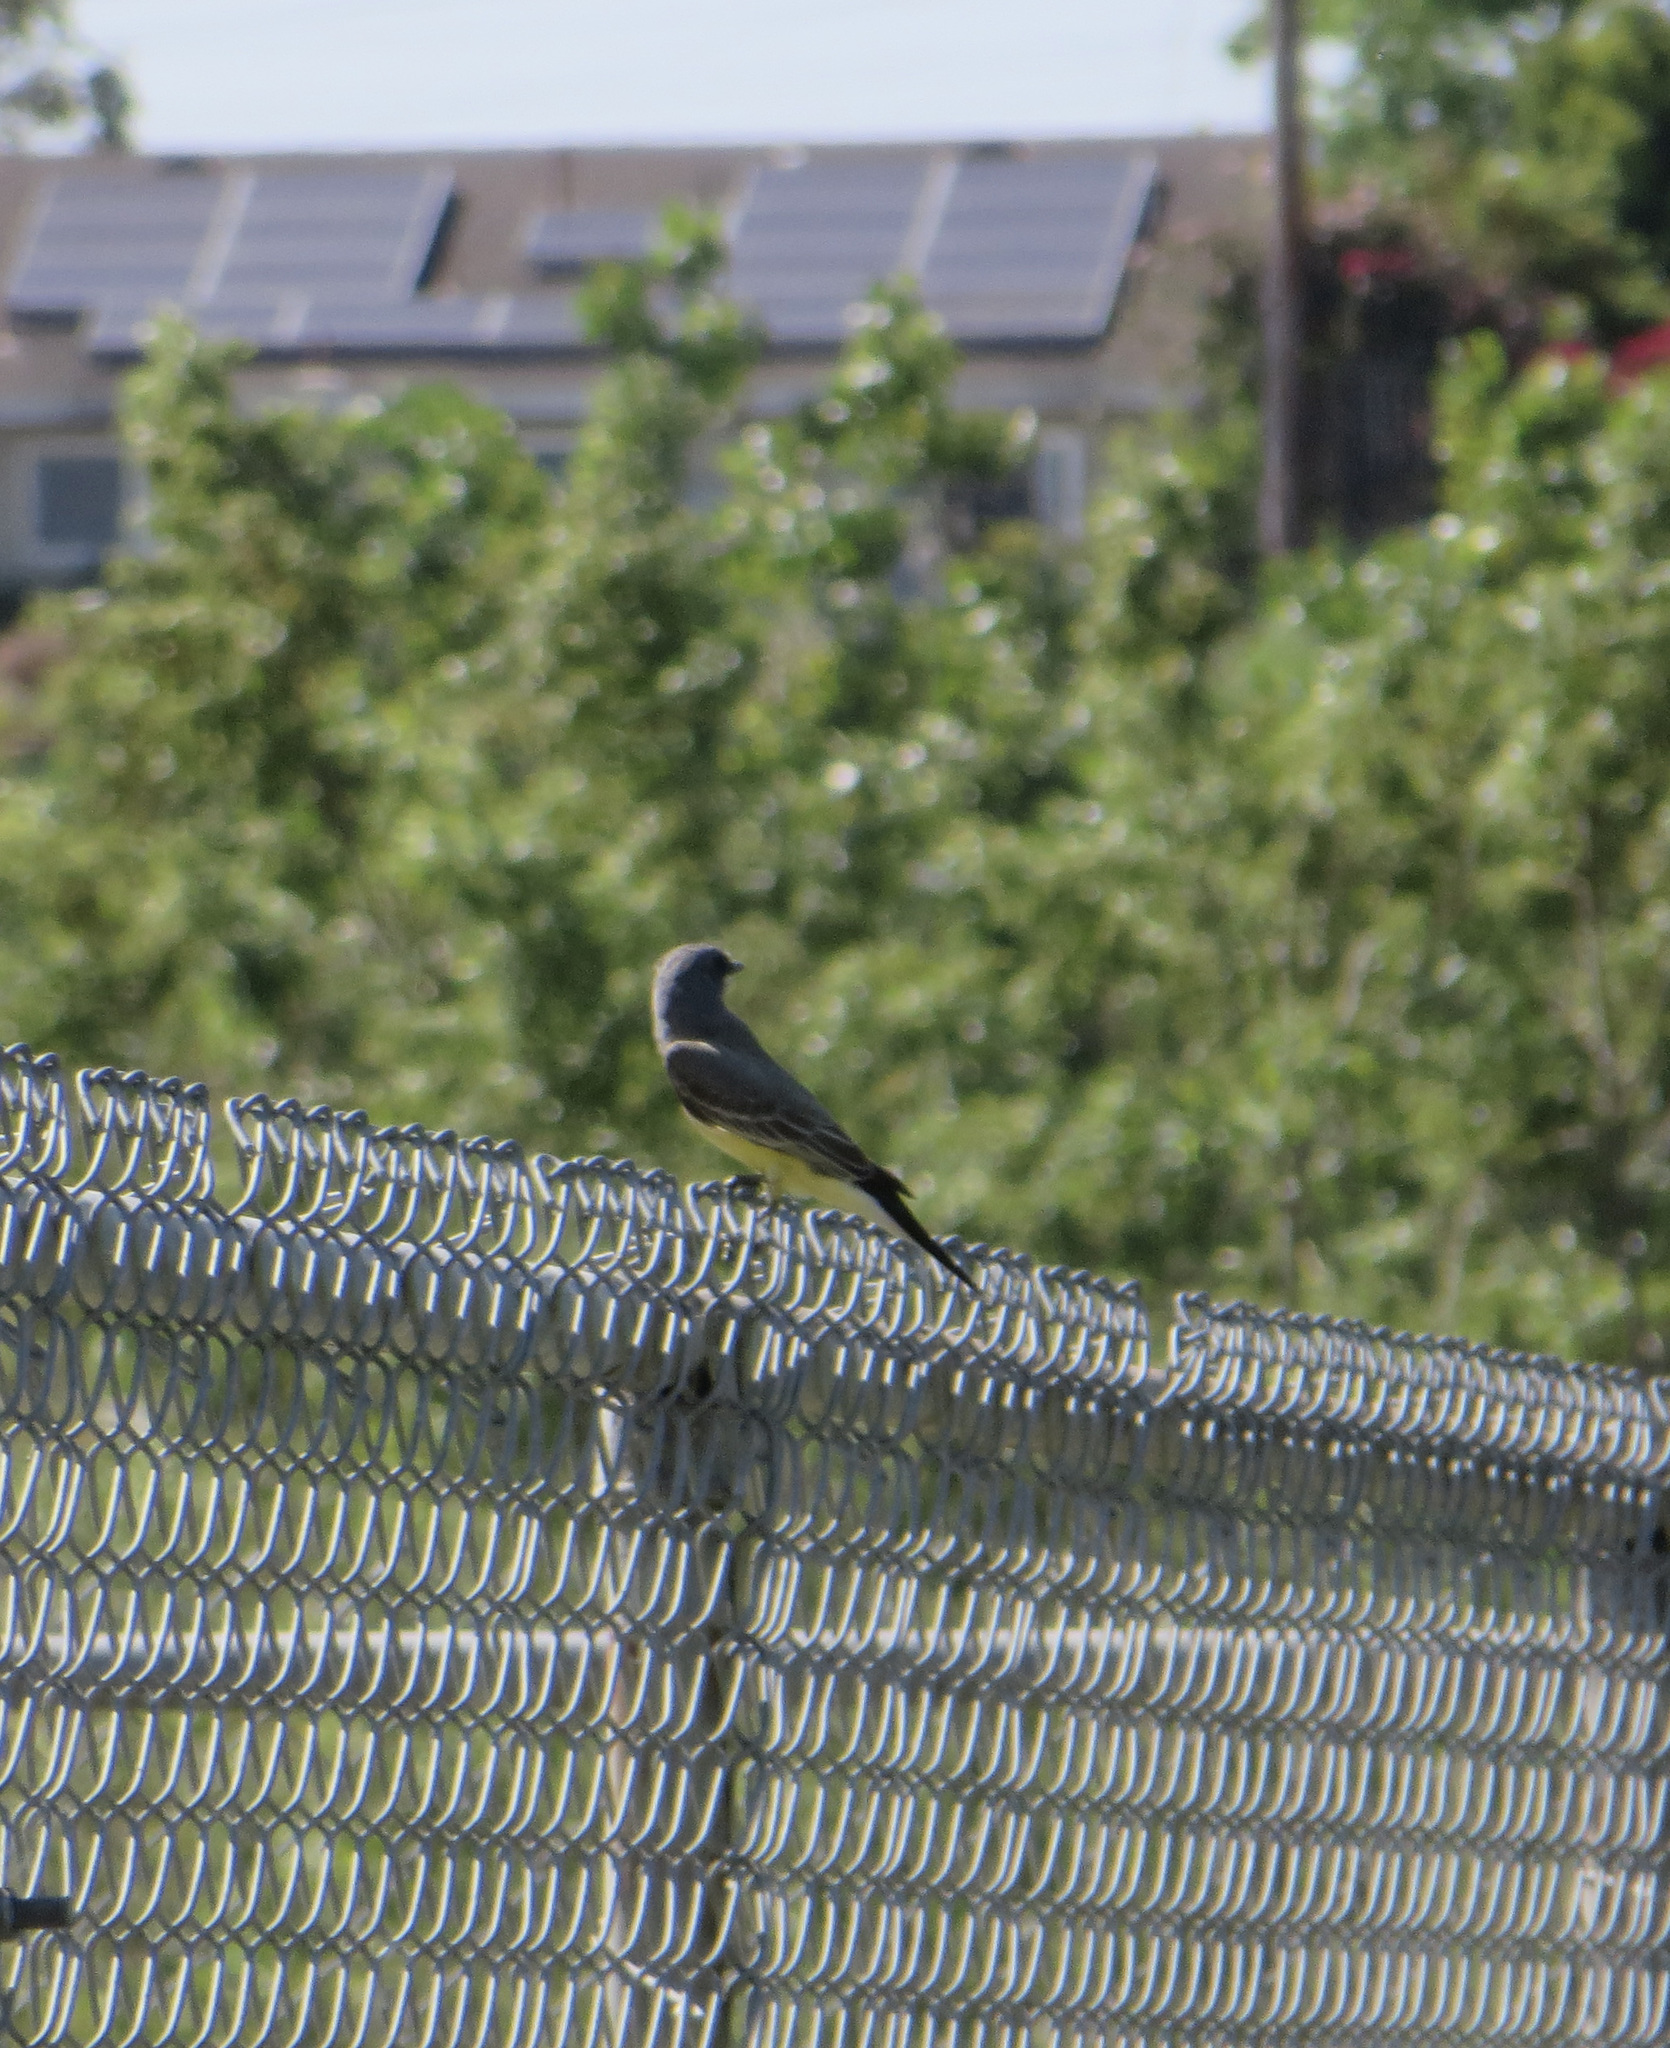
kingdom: Animalia
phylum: Chordata
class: Aves
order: Passeriformes
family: Tyrannidae
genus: Tyrannus
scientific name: Tyrannus vociferans
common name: Cassin's kingbird
